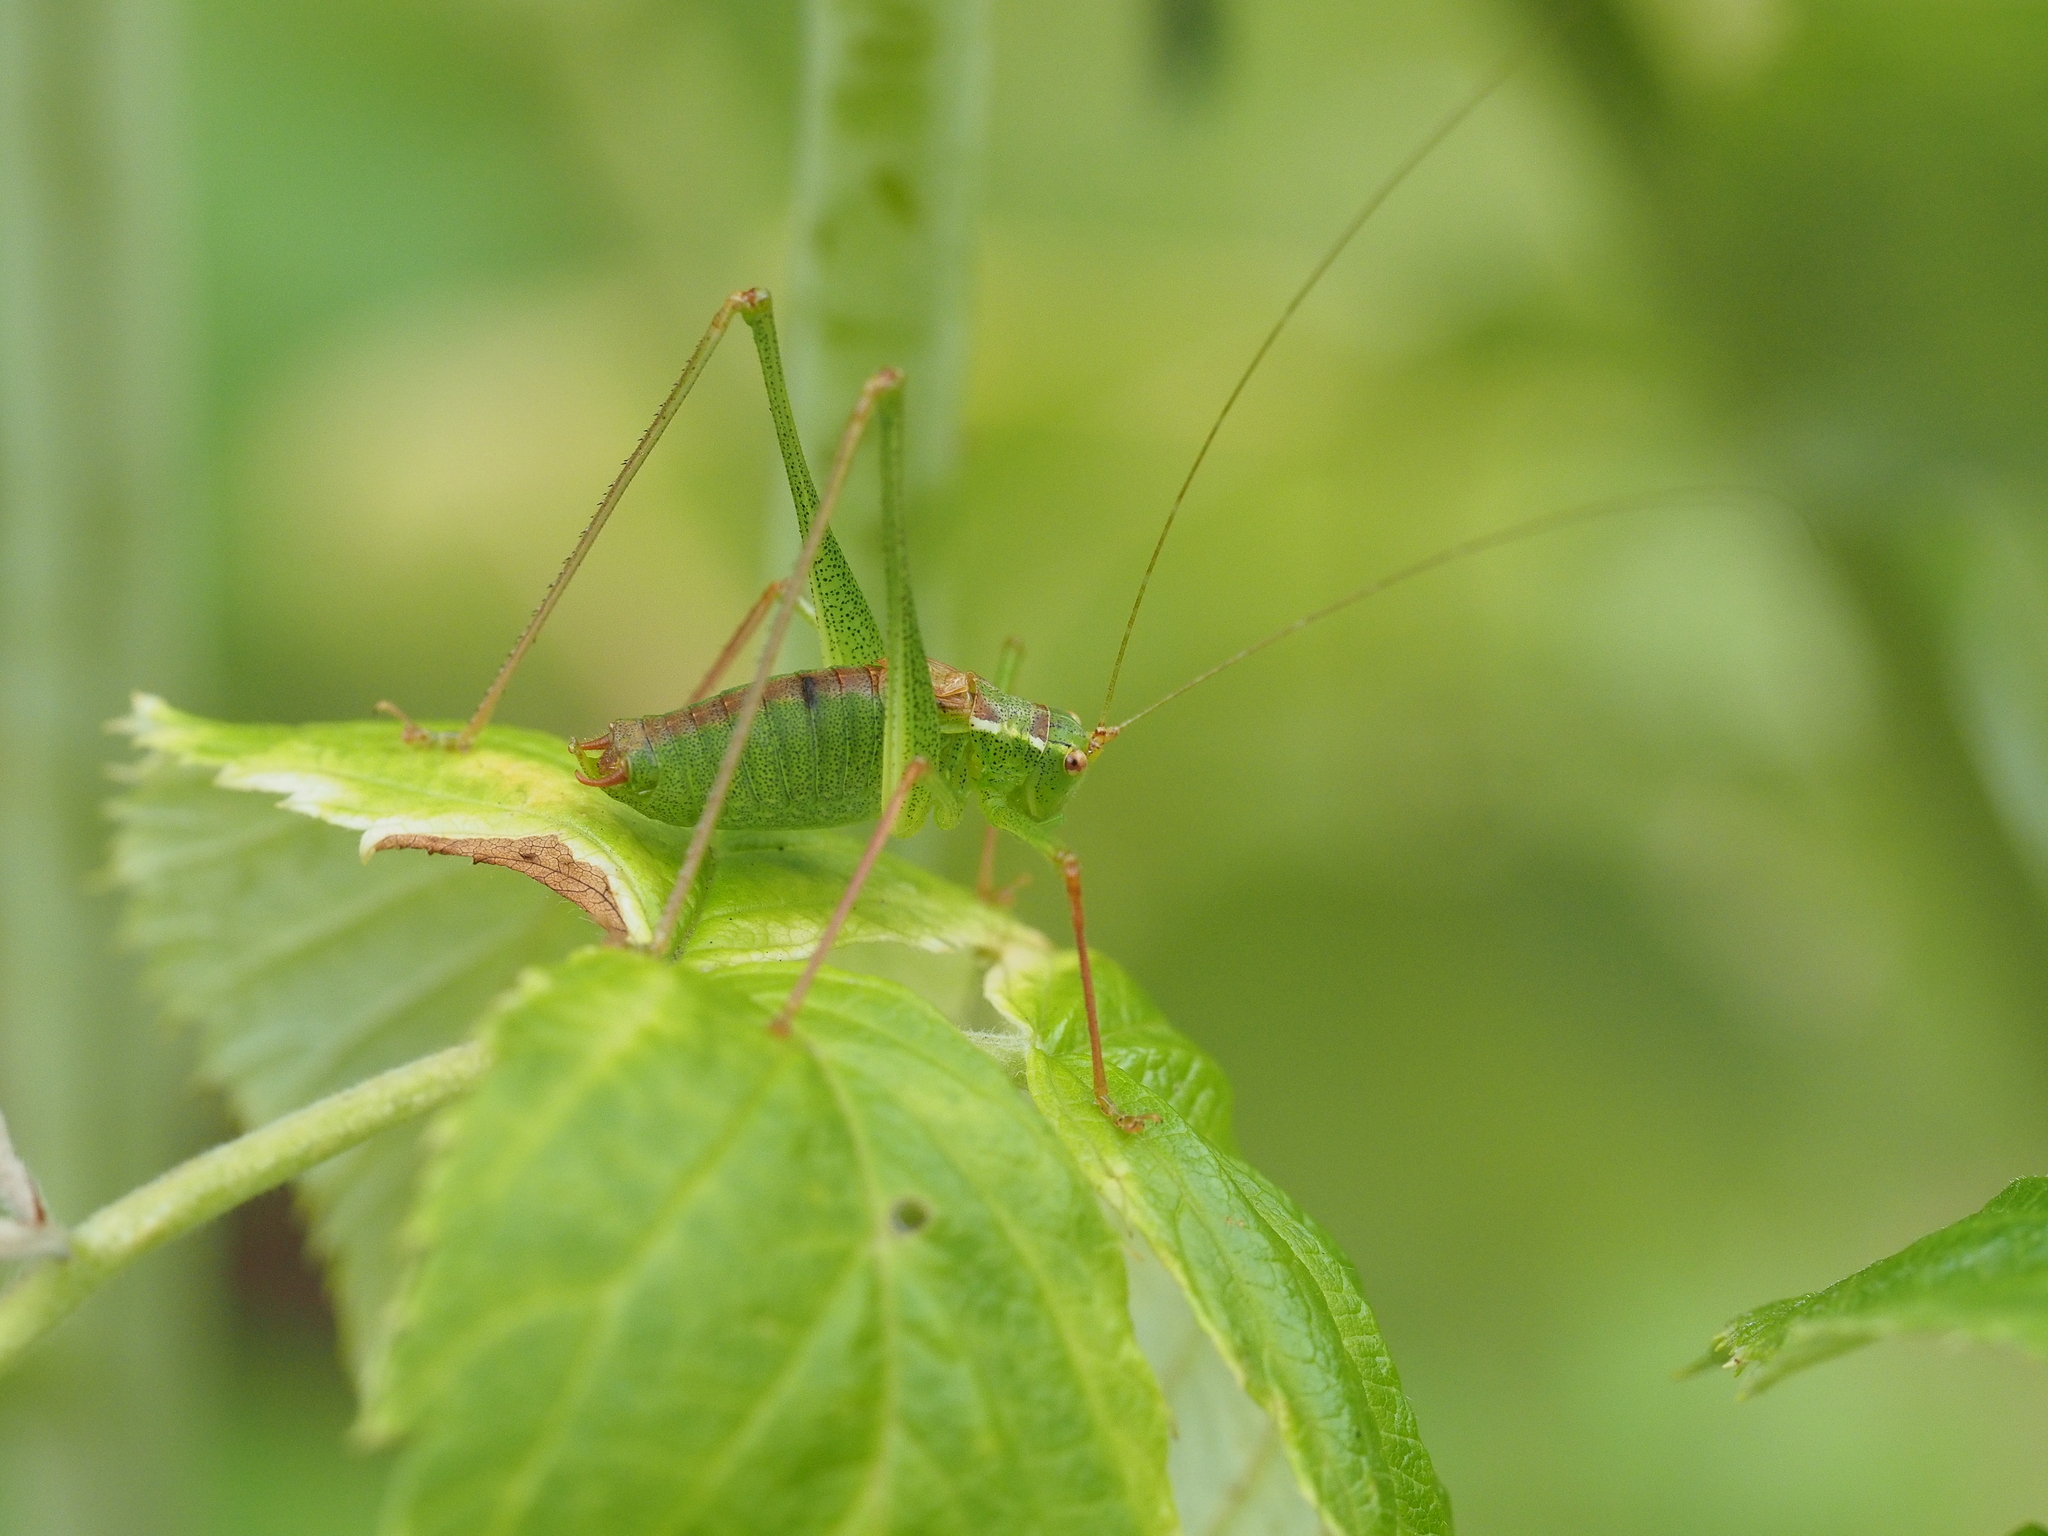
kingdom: Animalia
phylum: Arthropoda
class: Insecta
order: Orthoptera
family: Tettigoniidae
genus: Leptophyes
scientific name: Leptophyes punctatissima
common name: Speckled bush-cricket
